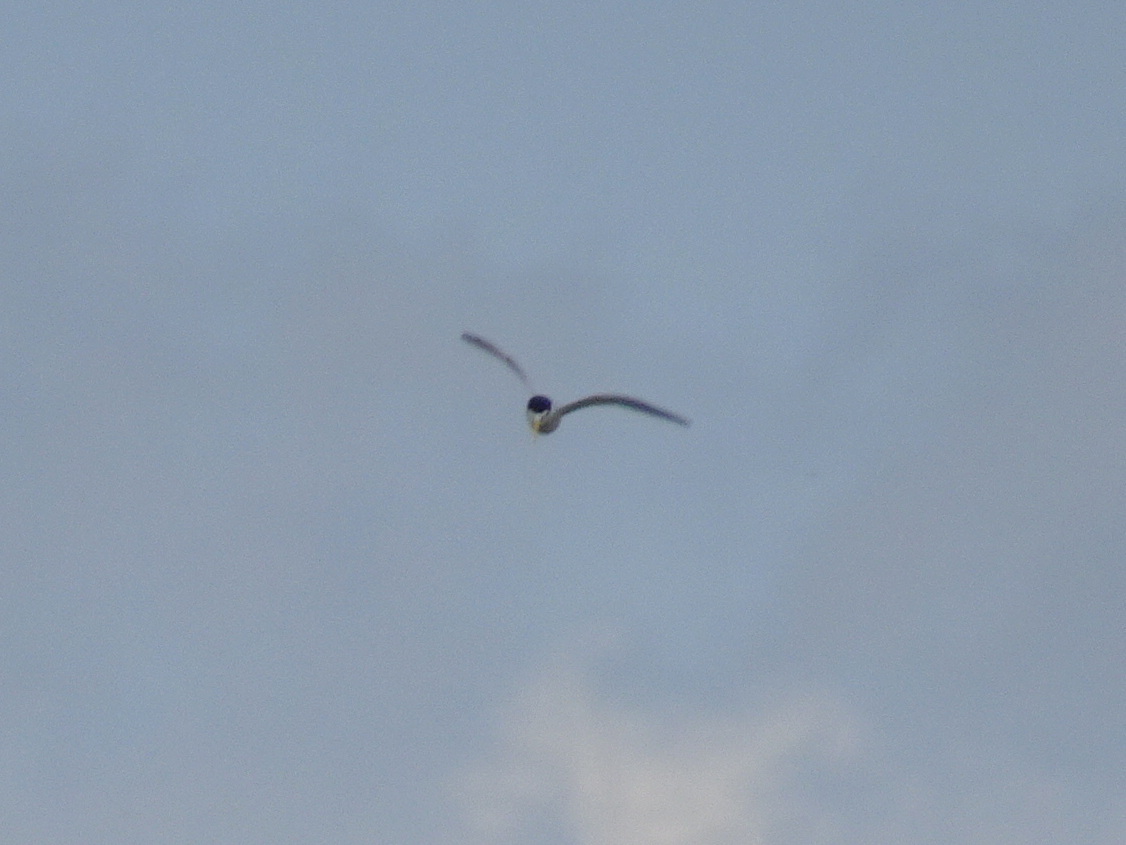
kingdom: Animalia
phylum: Chordata
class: Aves
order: Charadriiformes
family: Laridae
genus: Sternula
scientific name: Sternula antillarum
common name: Least tern
